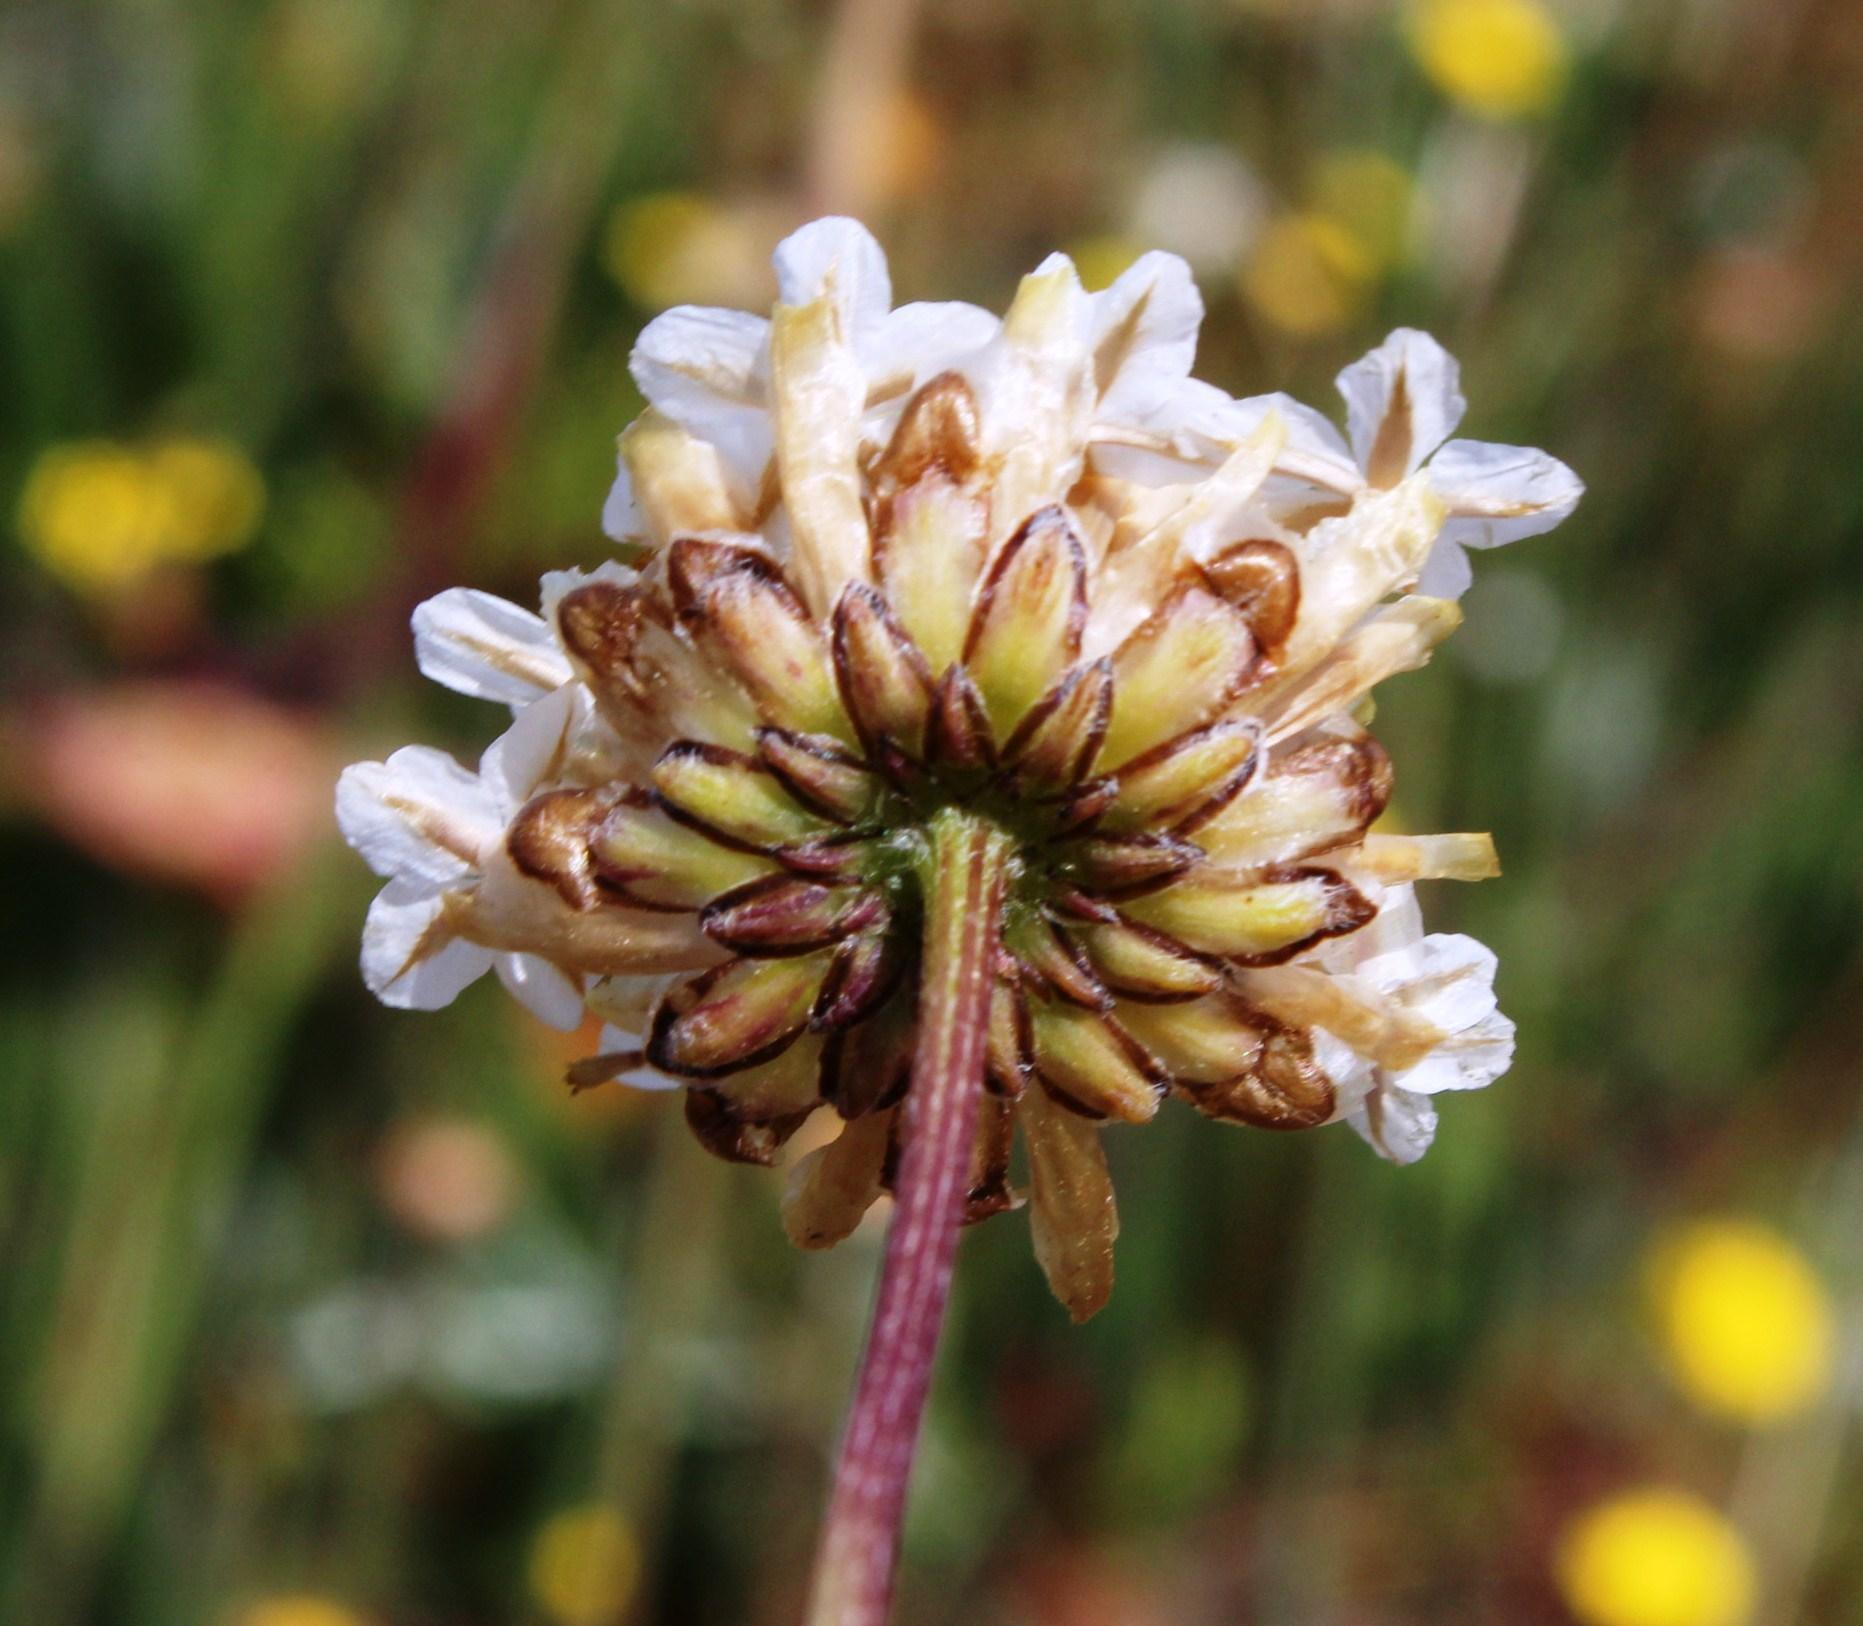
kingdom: Plantae
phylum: Tracheophyta
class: Magnoliopsida
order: Asterales
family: Asteraceae
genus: Ursinia
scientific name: Ursinia anthemoides
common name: Ursinia
